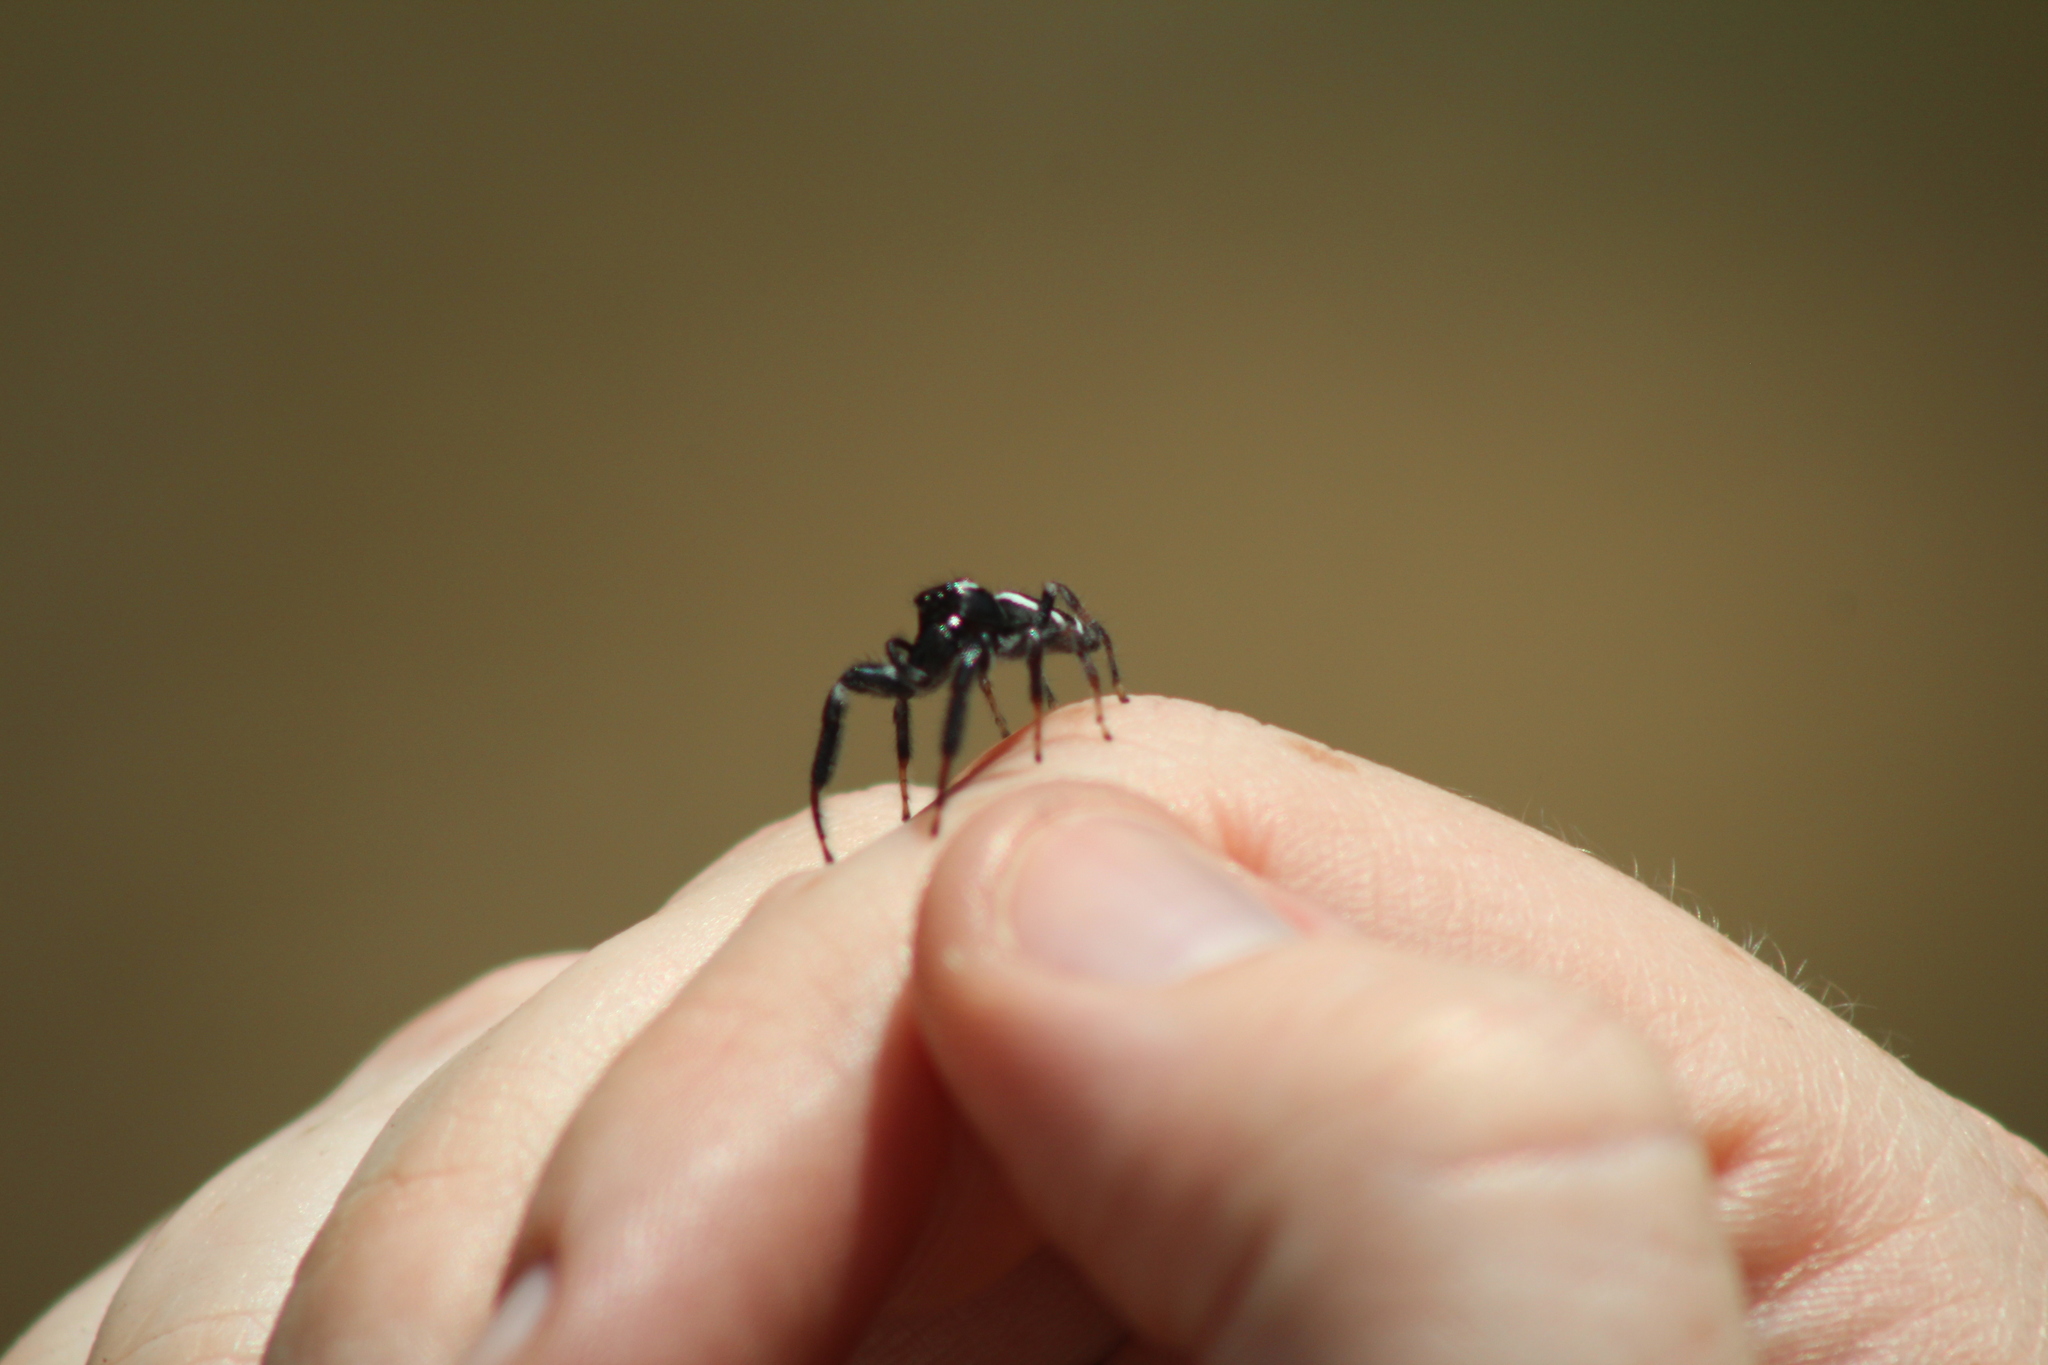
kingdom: Animalia
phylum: Arthropoda
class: Arachnida
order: Araneae
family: Salticidae
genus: Paraphidippus
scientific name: Paraphidippus aurantius
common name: Jumping spiders
